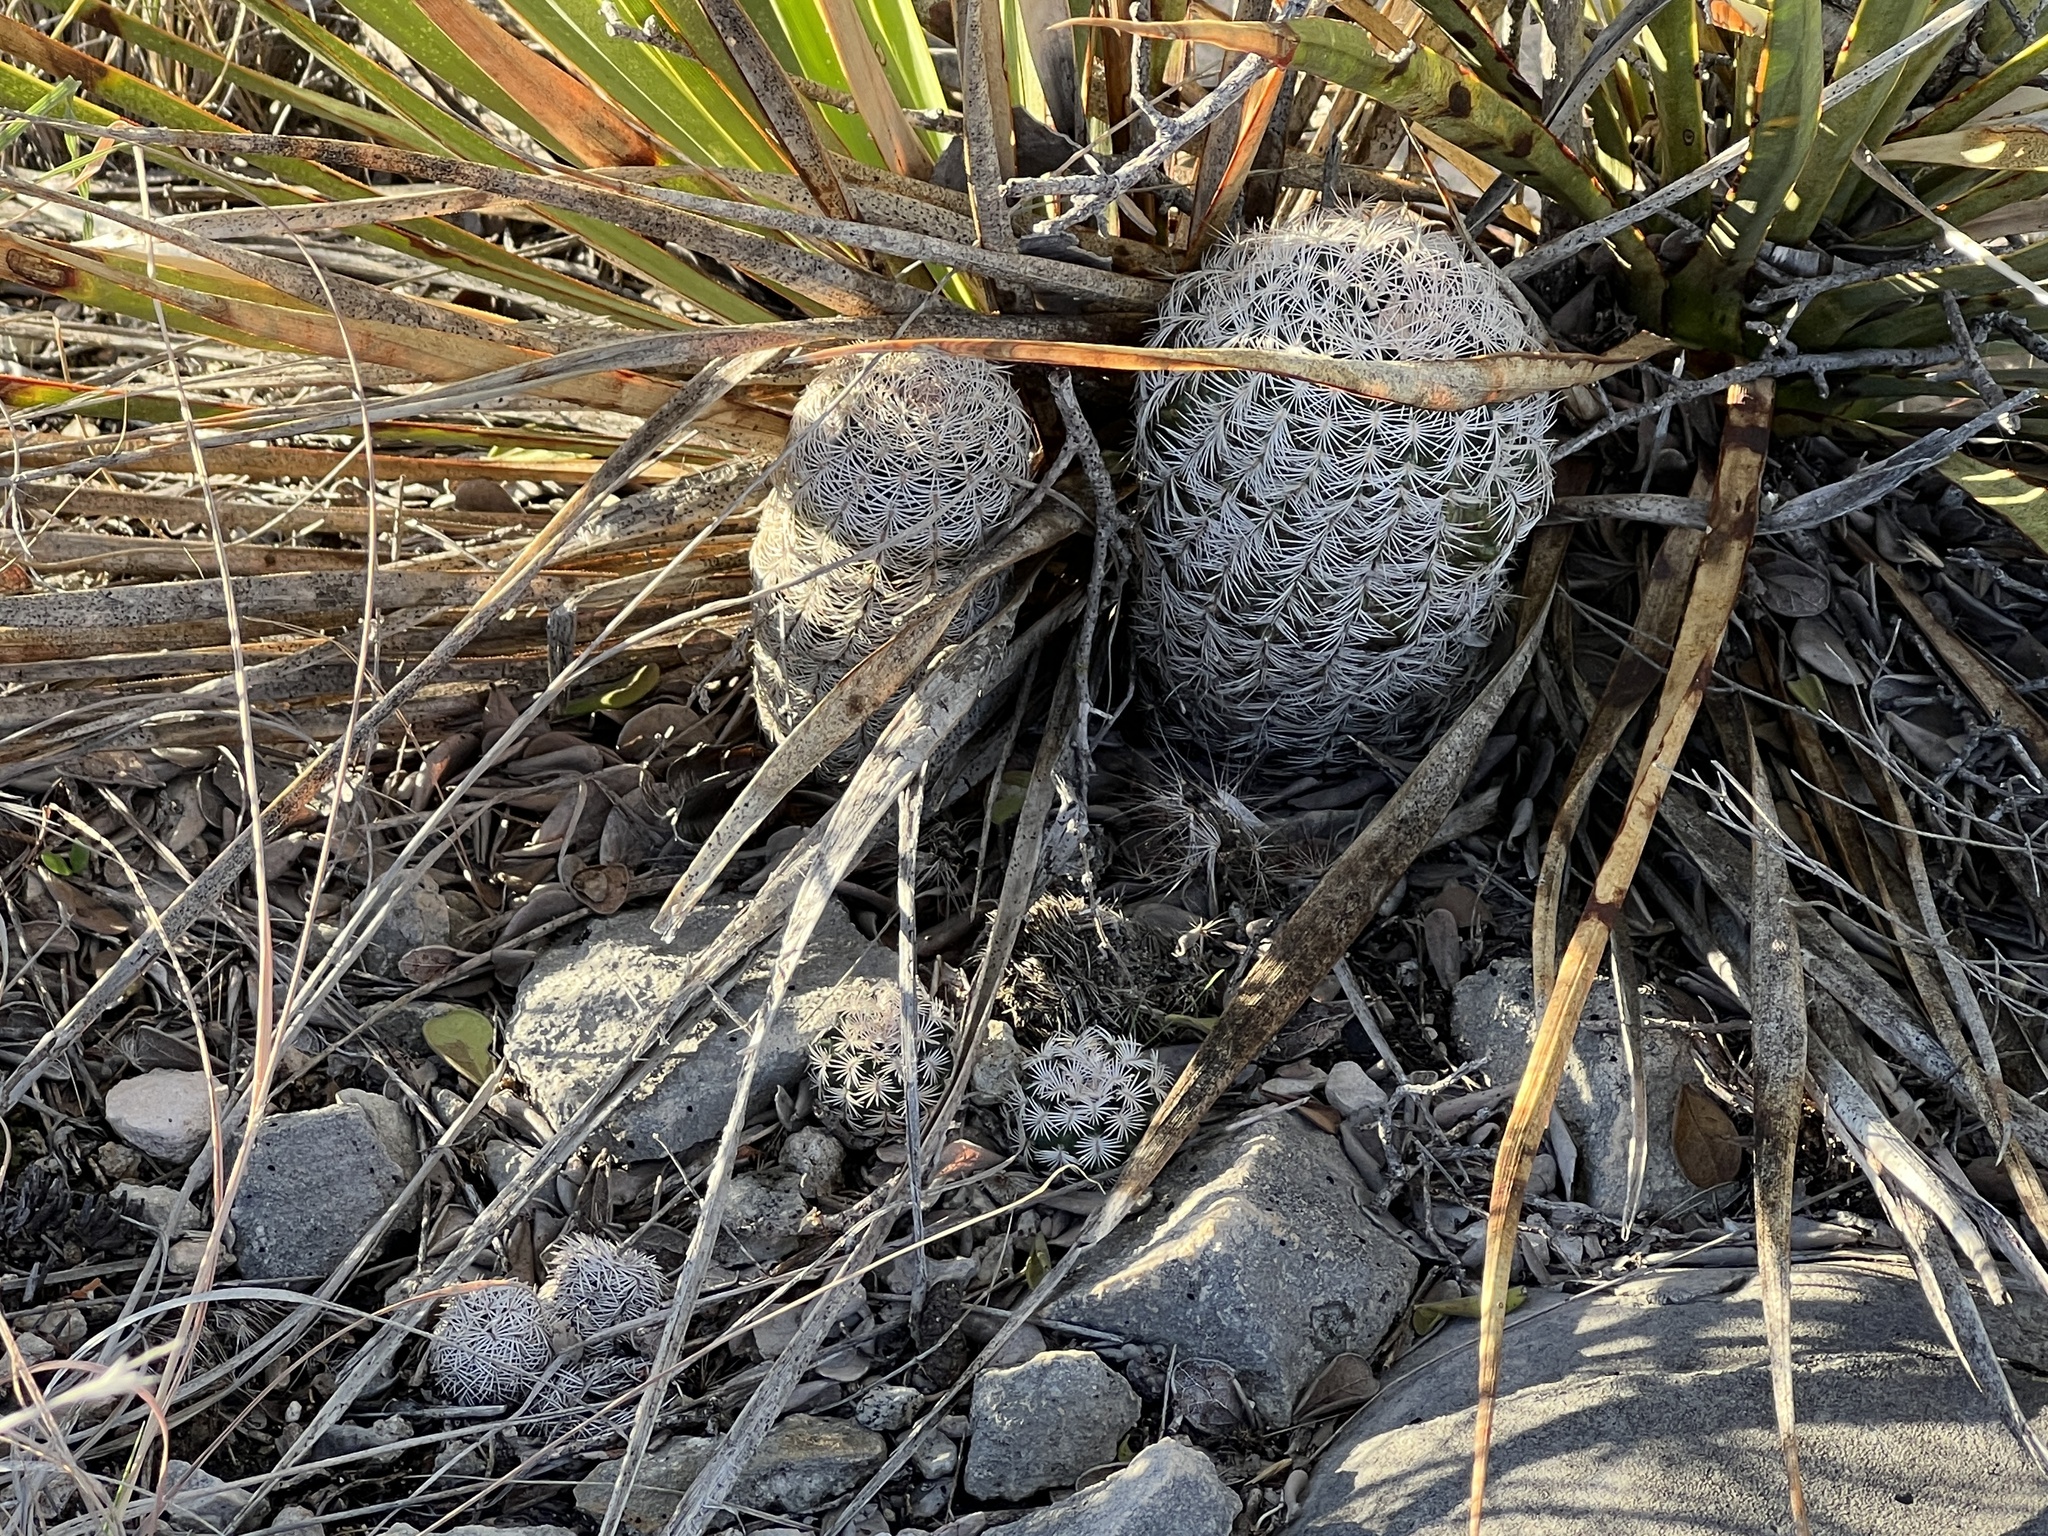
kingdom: Plantae
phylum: Tracheophyta
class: Magnoliopsida
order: Caryophyllales
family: Cactaceae
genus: Echinocereus
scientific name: Echinocereus reichenbachii
